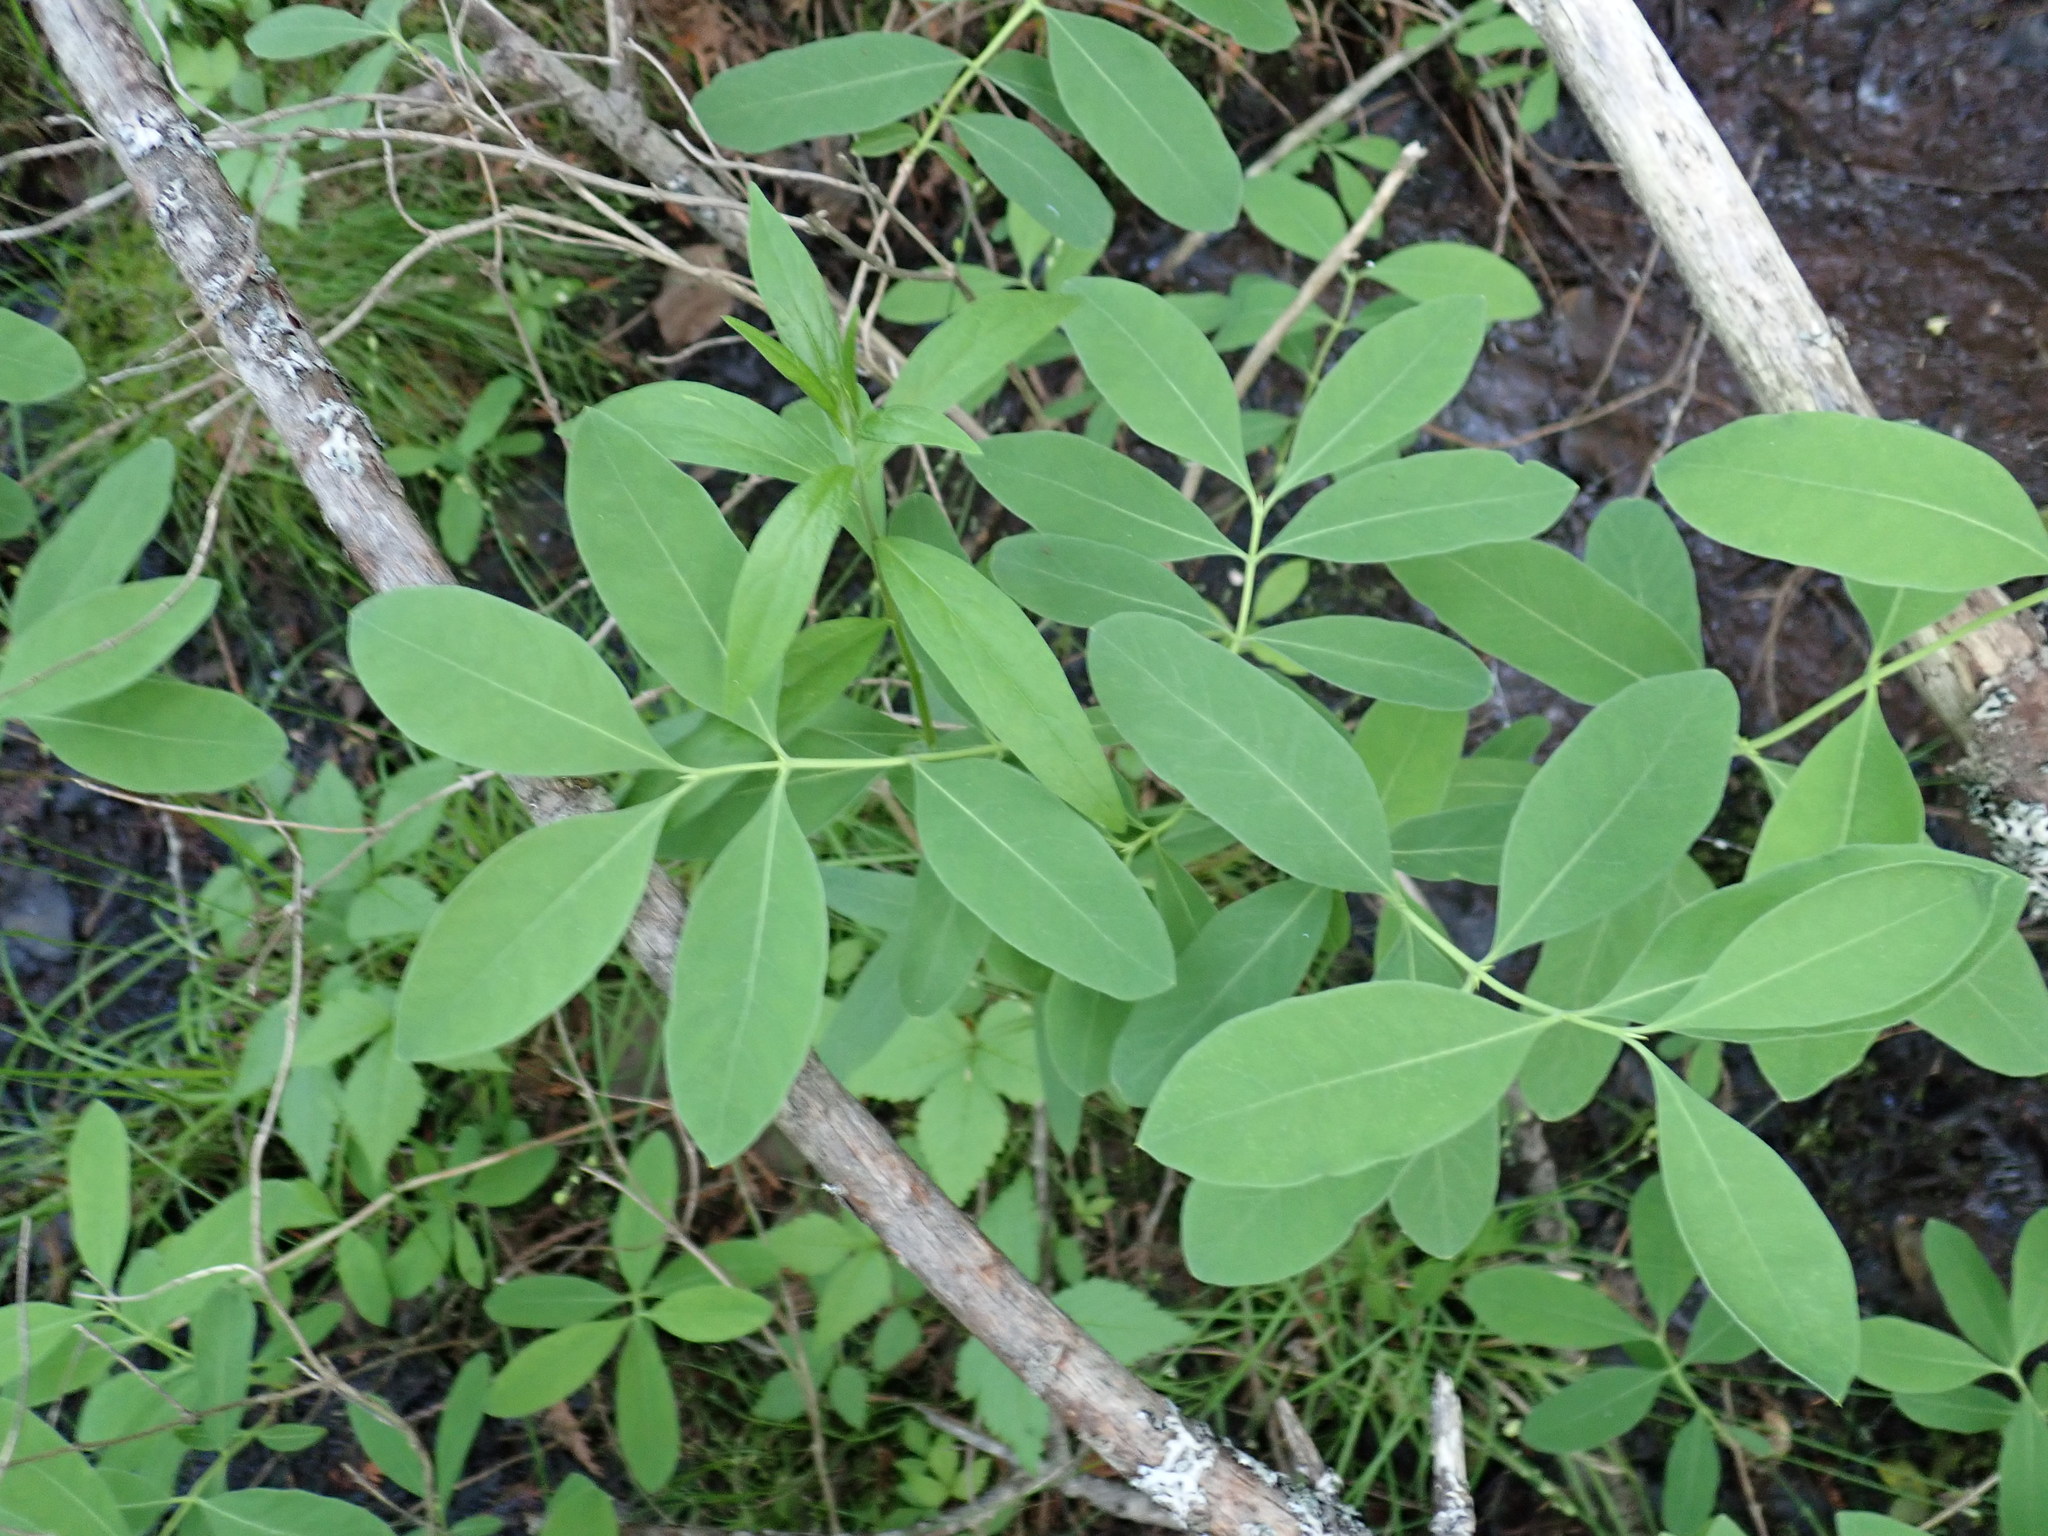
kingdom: Plantae
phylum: Tracheophyta
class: Magnoliopsida
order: Dipsacales
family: Caprifoliaceae
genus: Lonicera
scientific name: Lonicera oblongifolia
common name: Swamp fly honeysuckle
